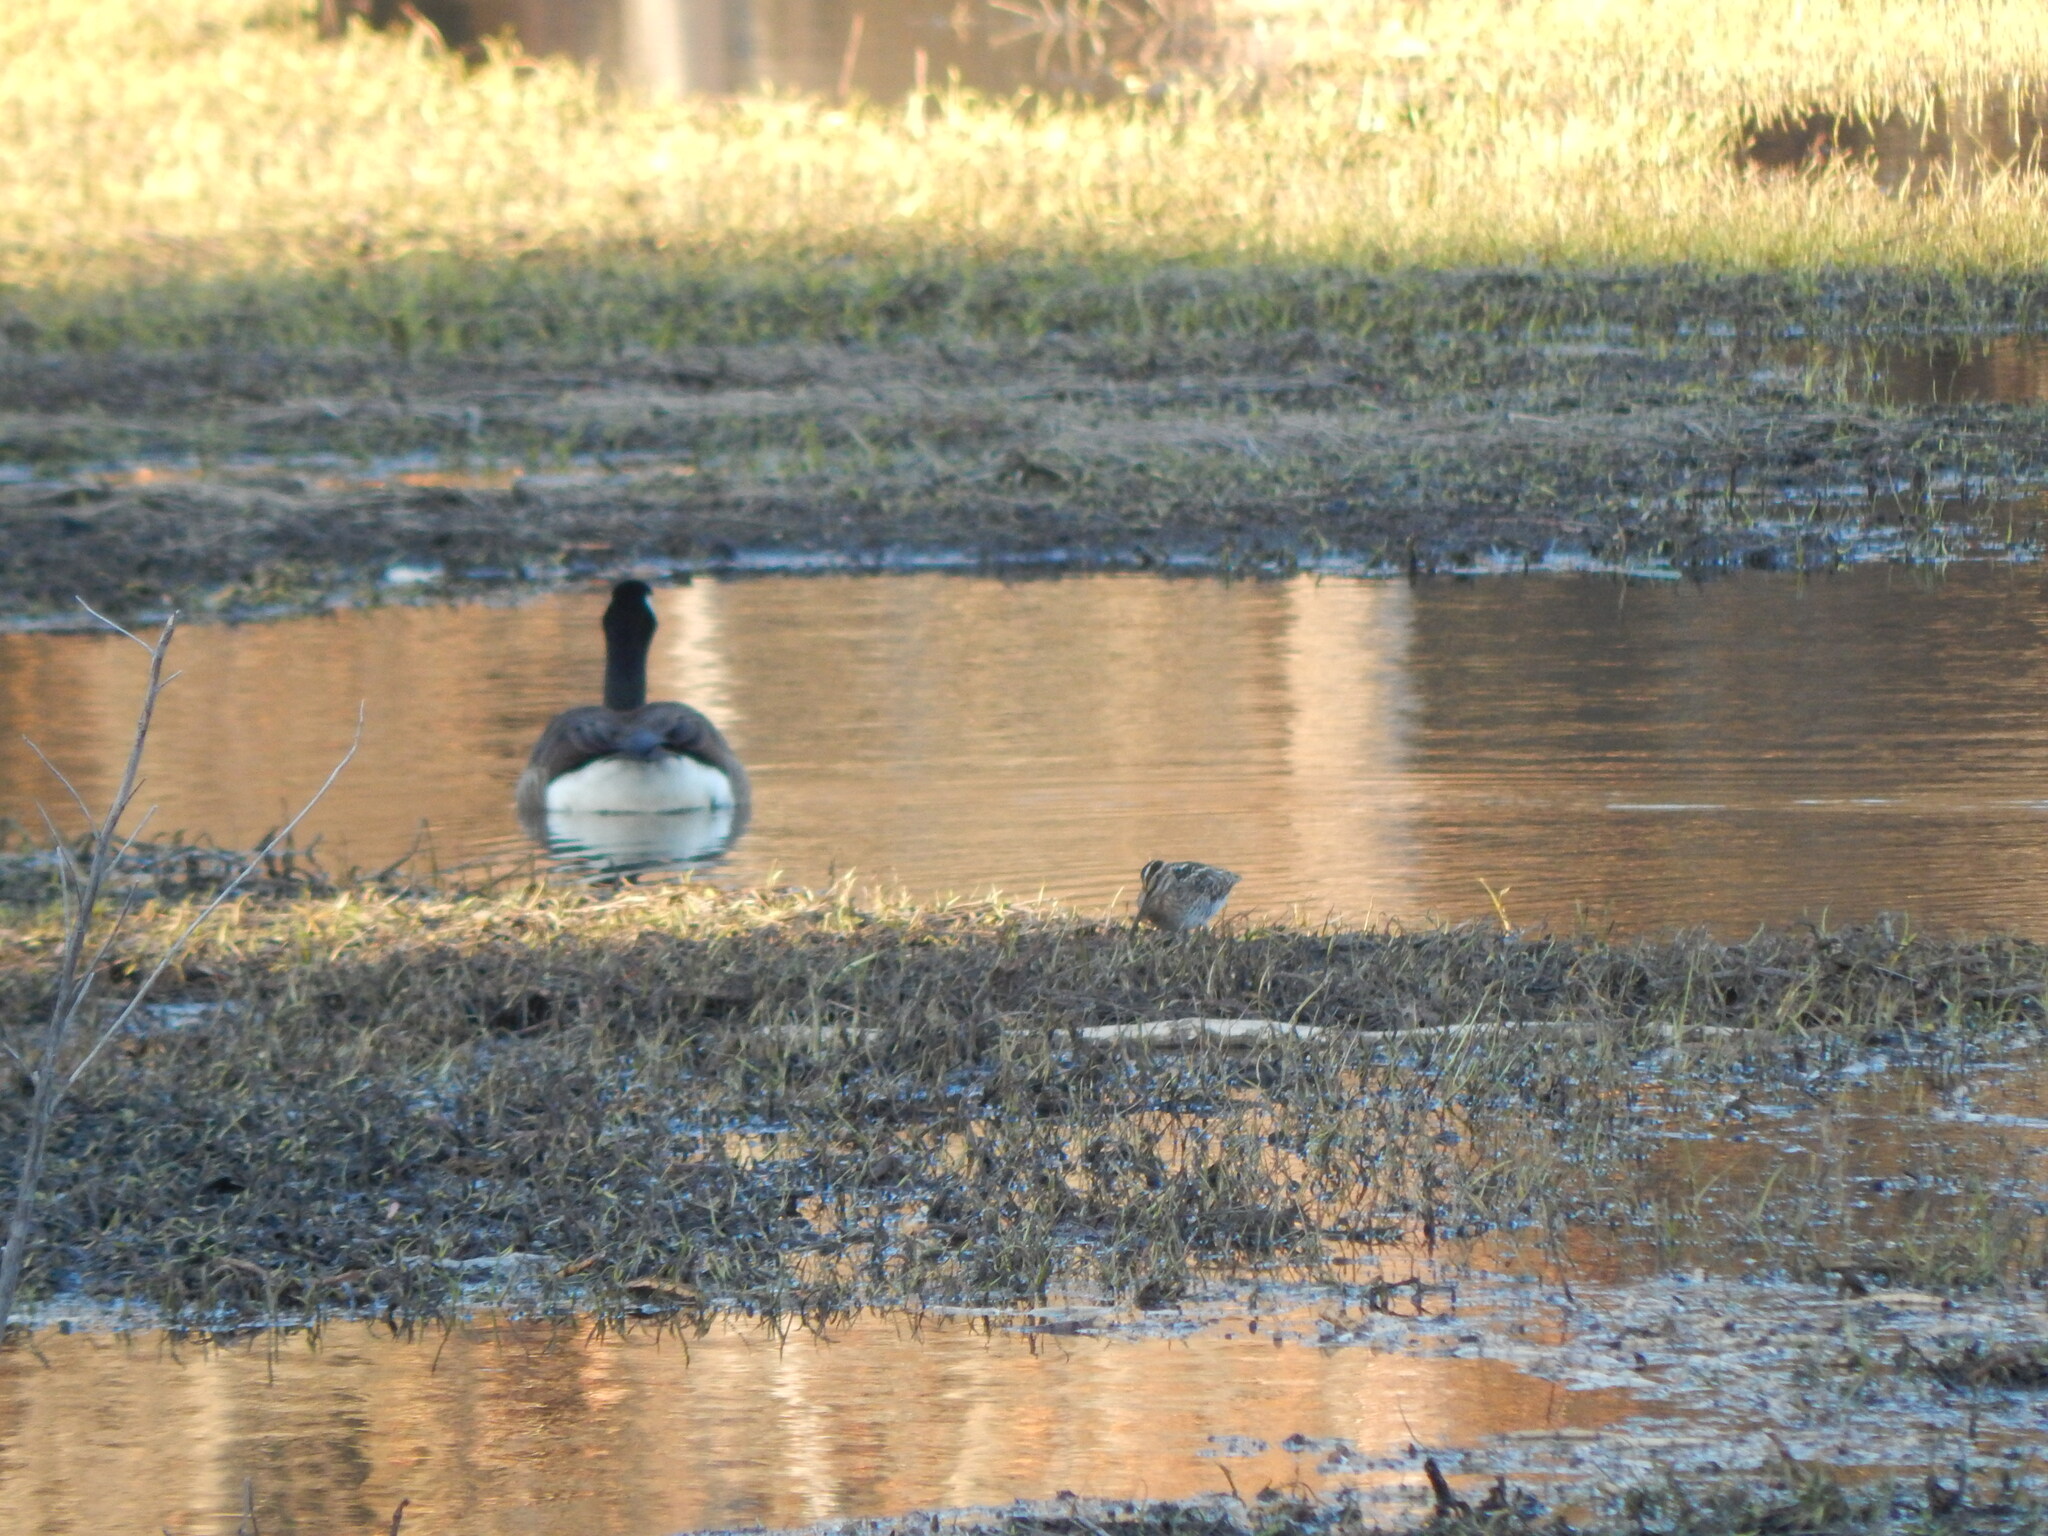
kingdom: Animalia
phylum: Chordata
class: Aves
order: Charadriiformes
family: Scolopacidae
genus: Gallinago
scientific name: Gallinago delicata
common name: Wilson's snipe
